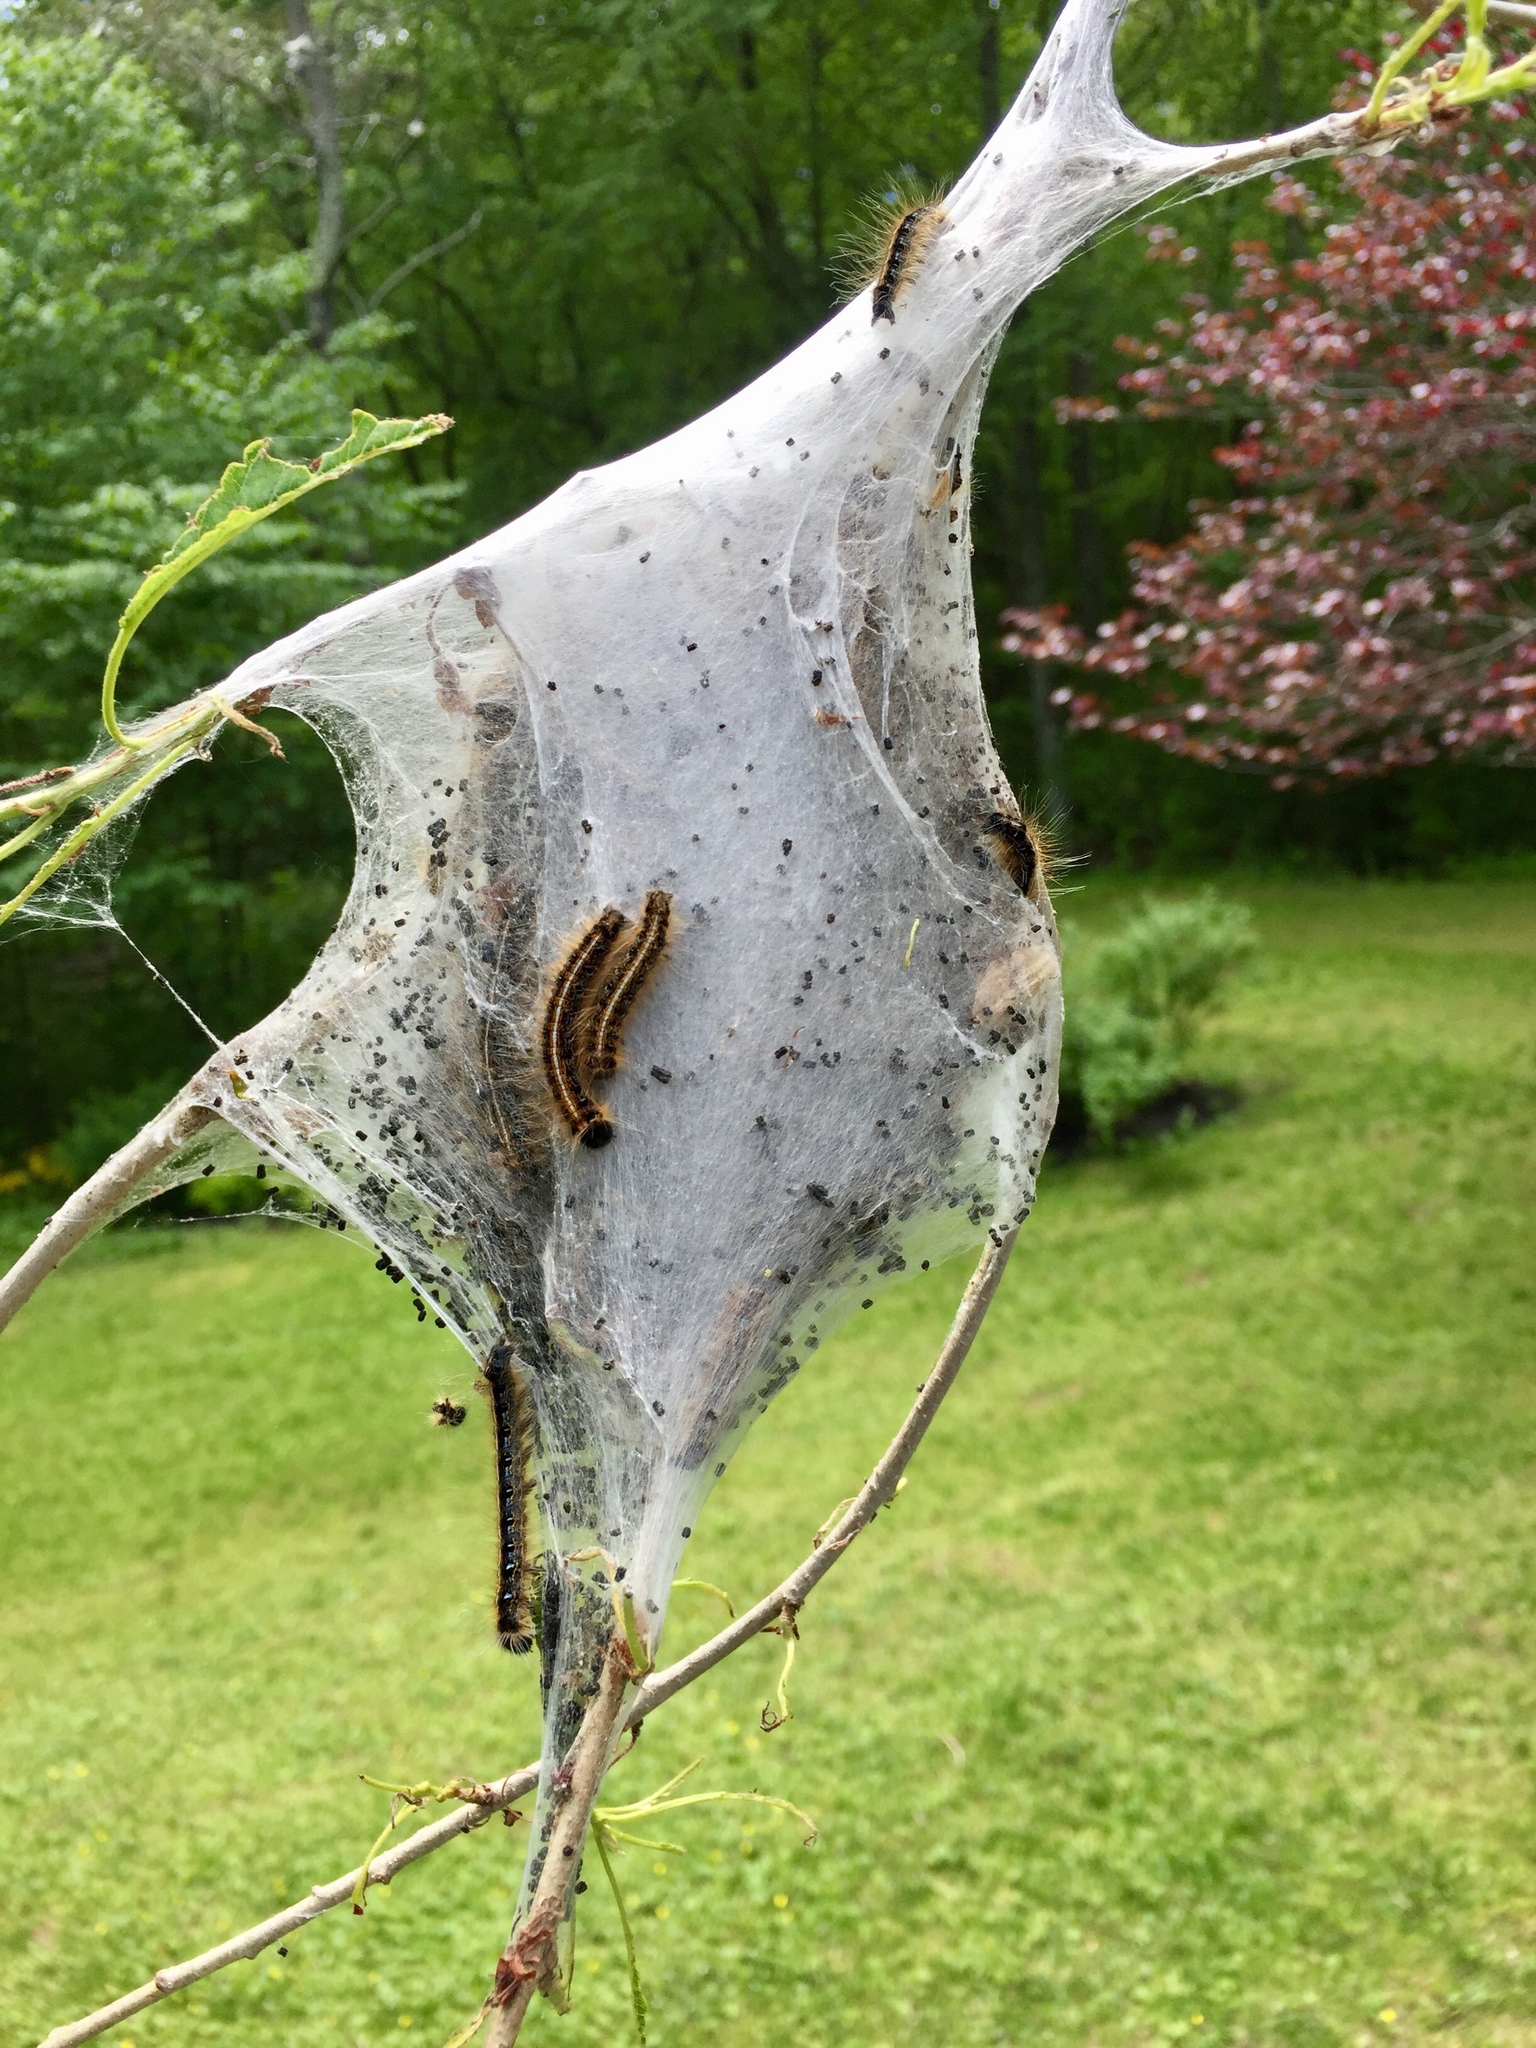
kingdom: Animalia
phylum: Arthropoda
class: Insecta
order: Lepidoptera
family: Lasiocampidae
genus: Malacosoma
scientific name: Malacosoma americana
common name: Eastern tent caterpillar moth
